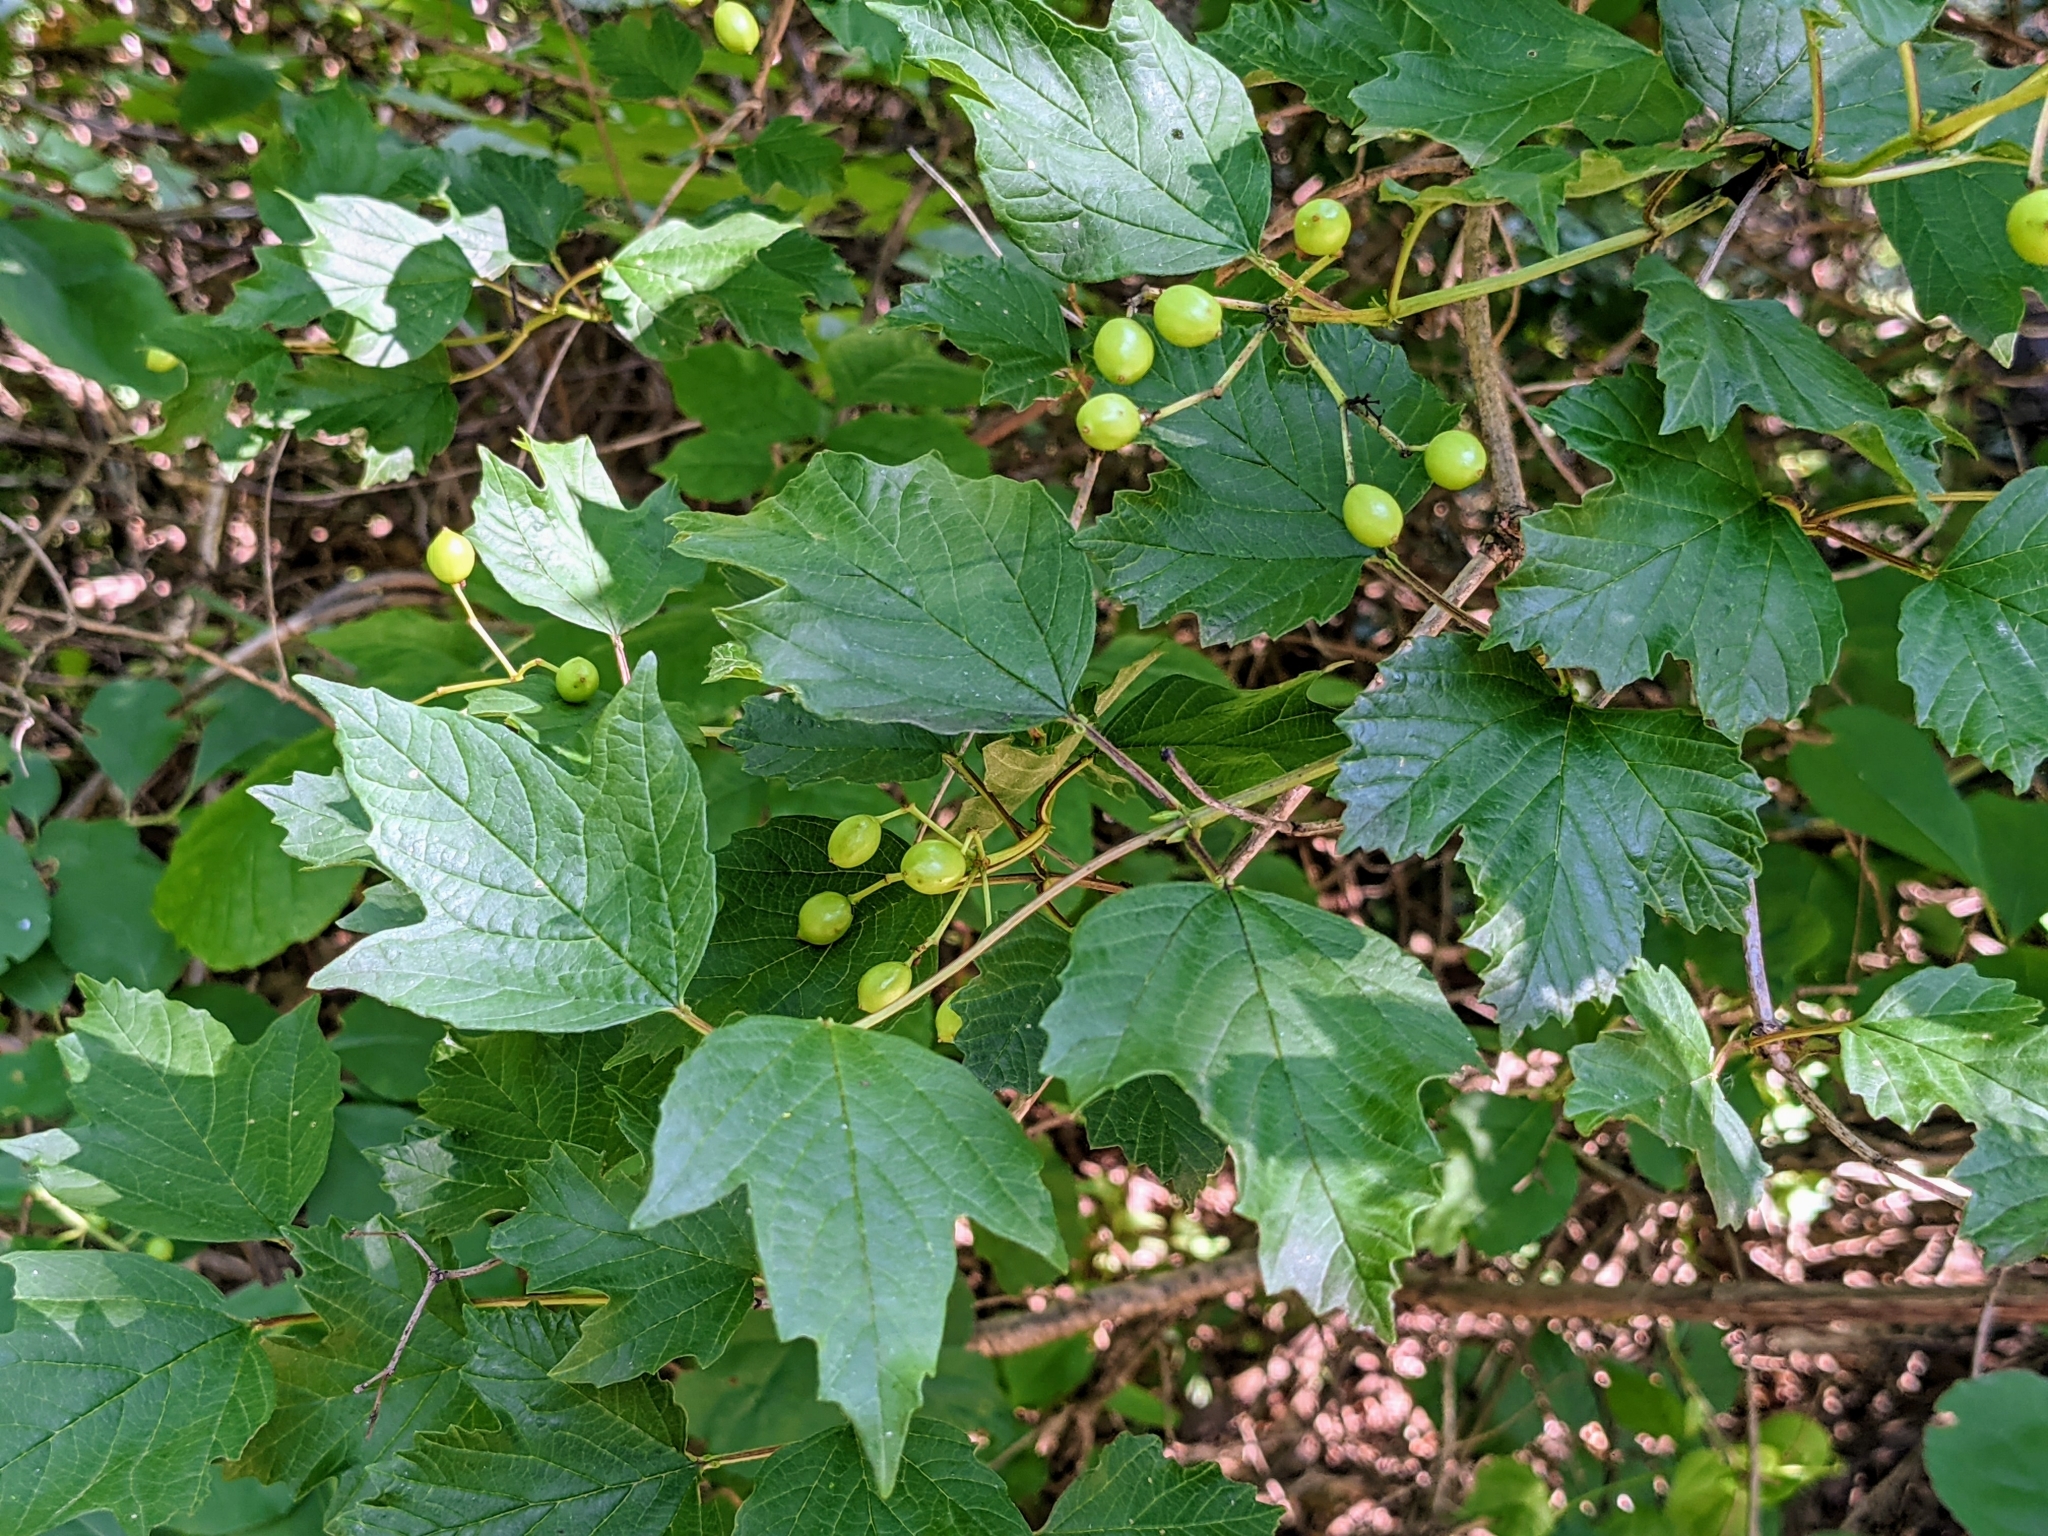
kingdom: Plantae
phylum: Tracheophyta
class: Magnoliopsida
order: Dipsacales
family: Viburnaceae
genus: Viburnum
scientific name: Viburnum opulus
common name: Guelder-rose
